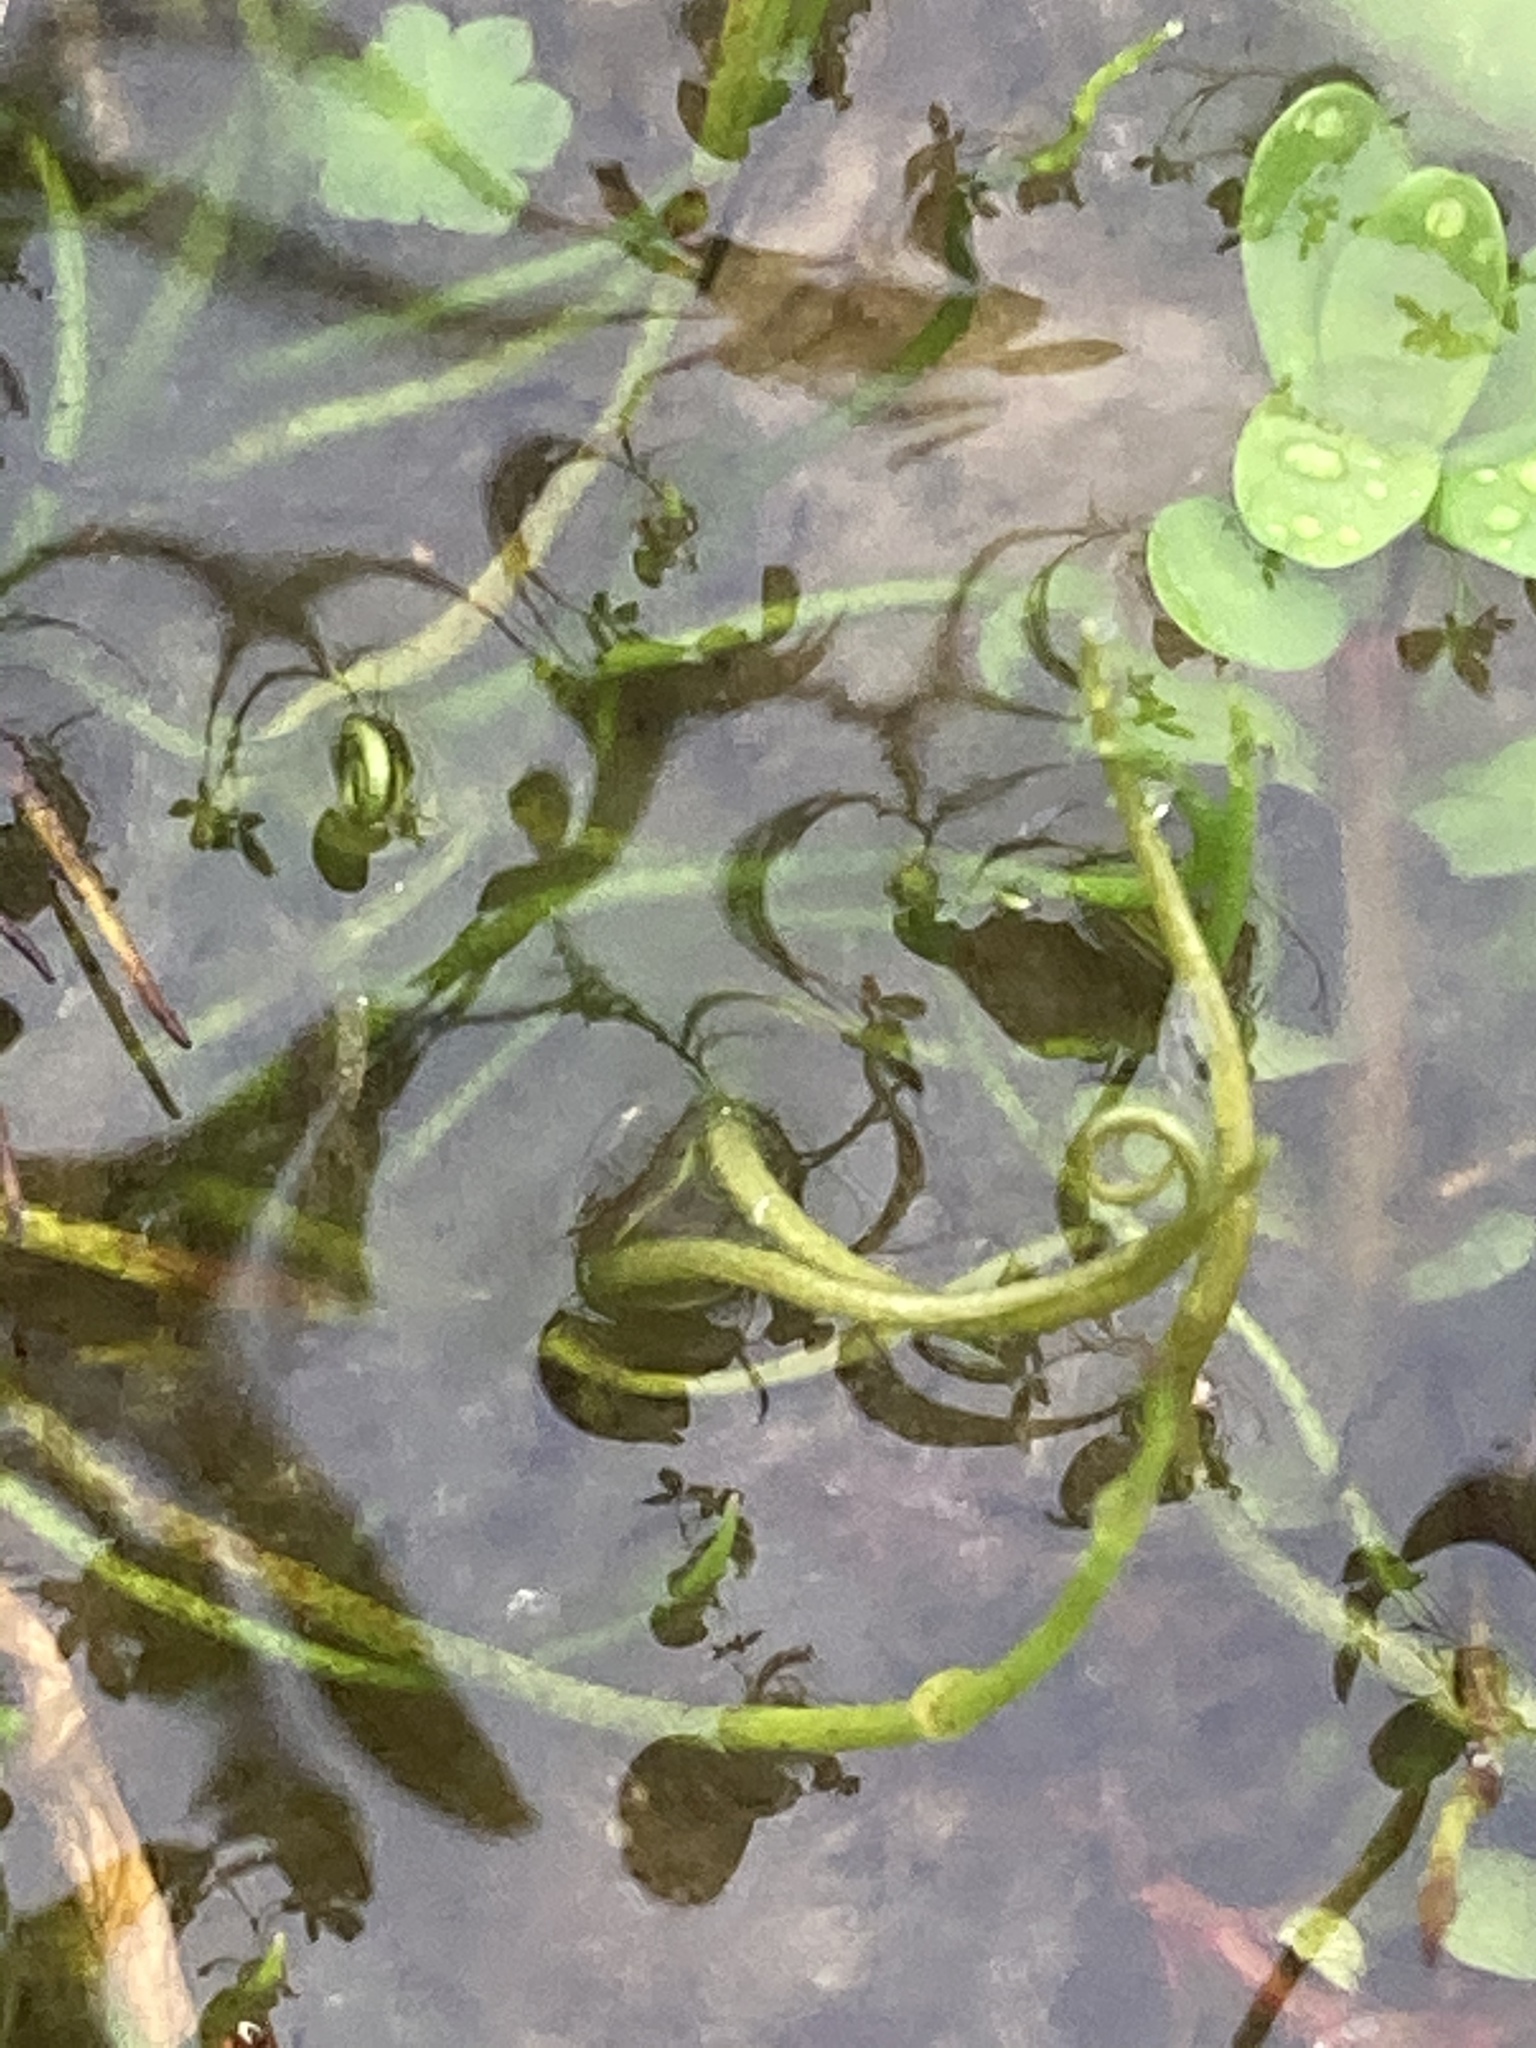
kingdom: Plantae
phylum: Tracheophyta
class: Polypodiopsida
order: Salviniales
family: Marsileaceae
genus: Pilularia
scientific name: Pilularia globulifera
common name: Pillwort
